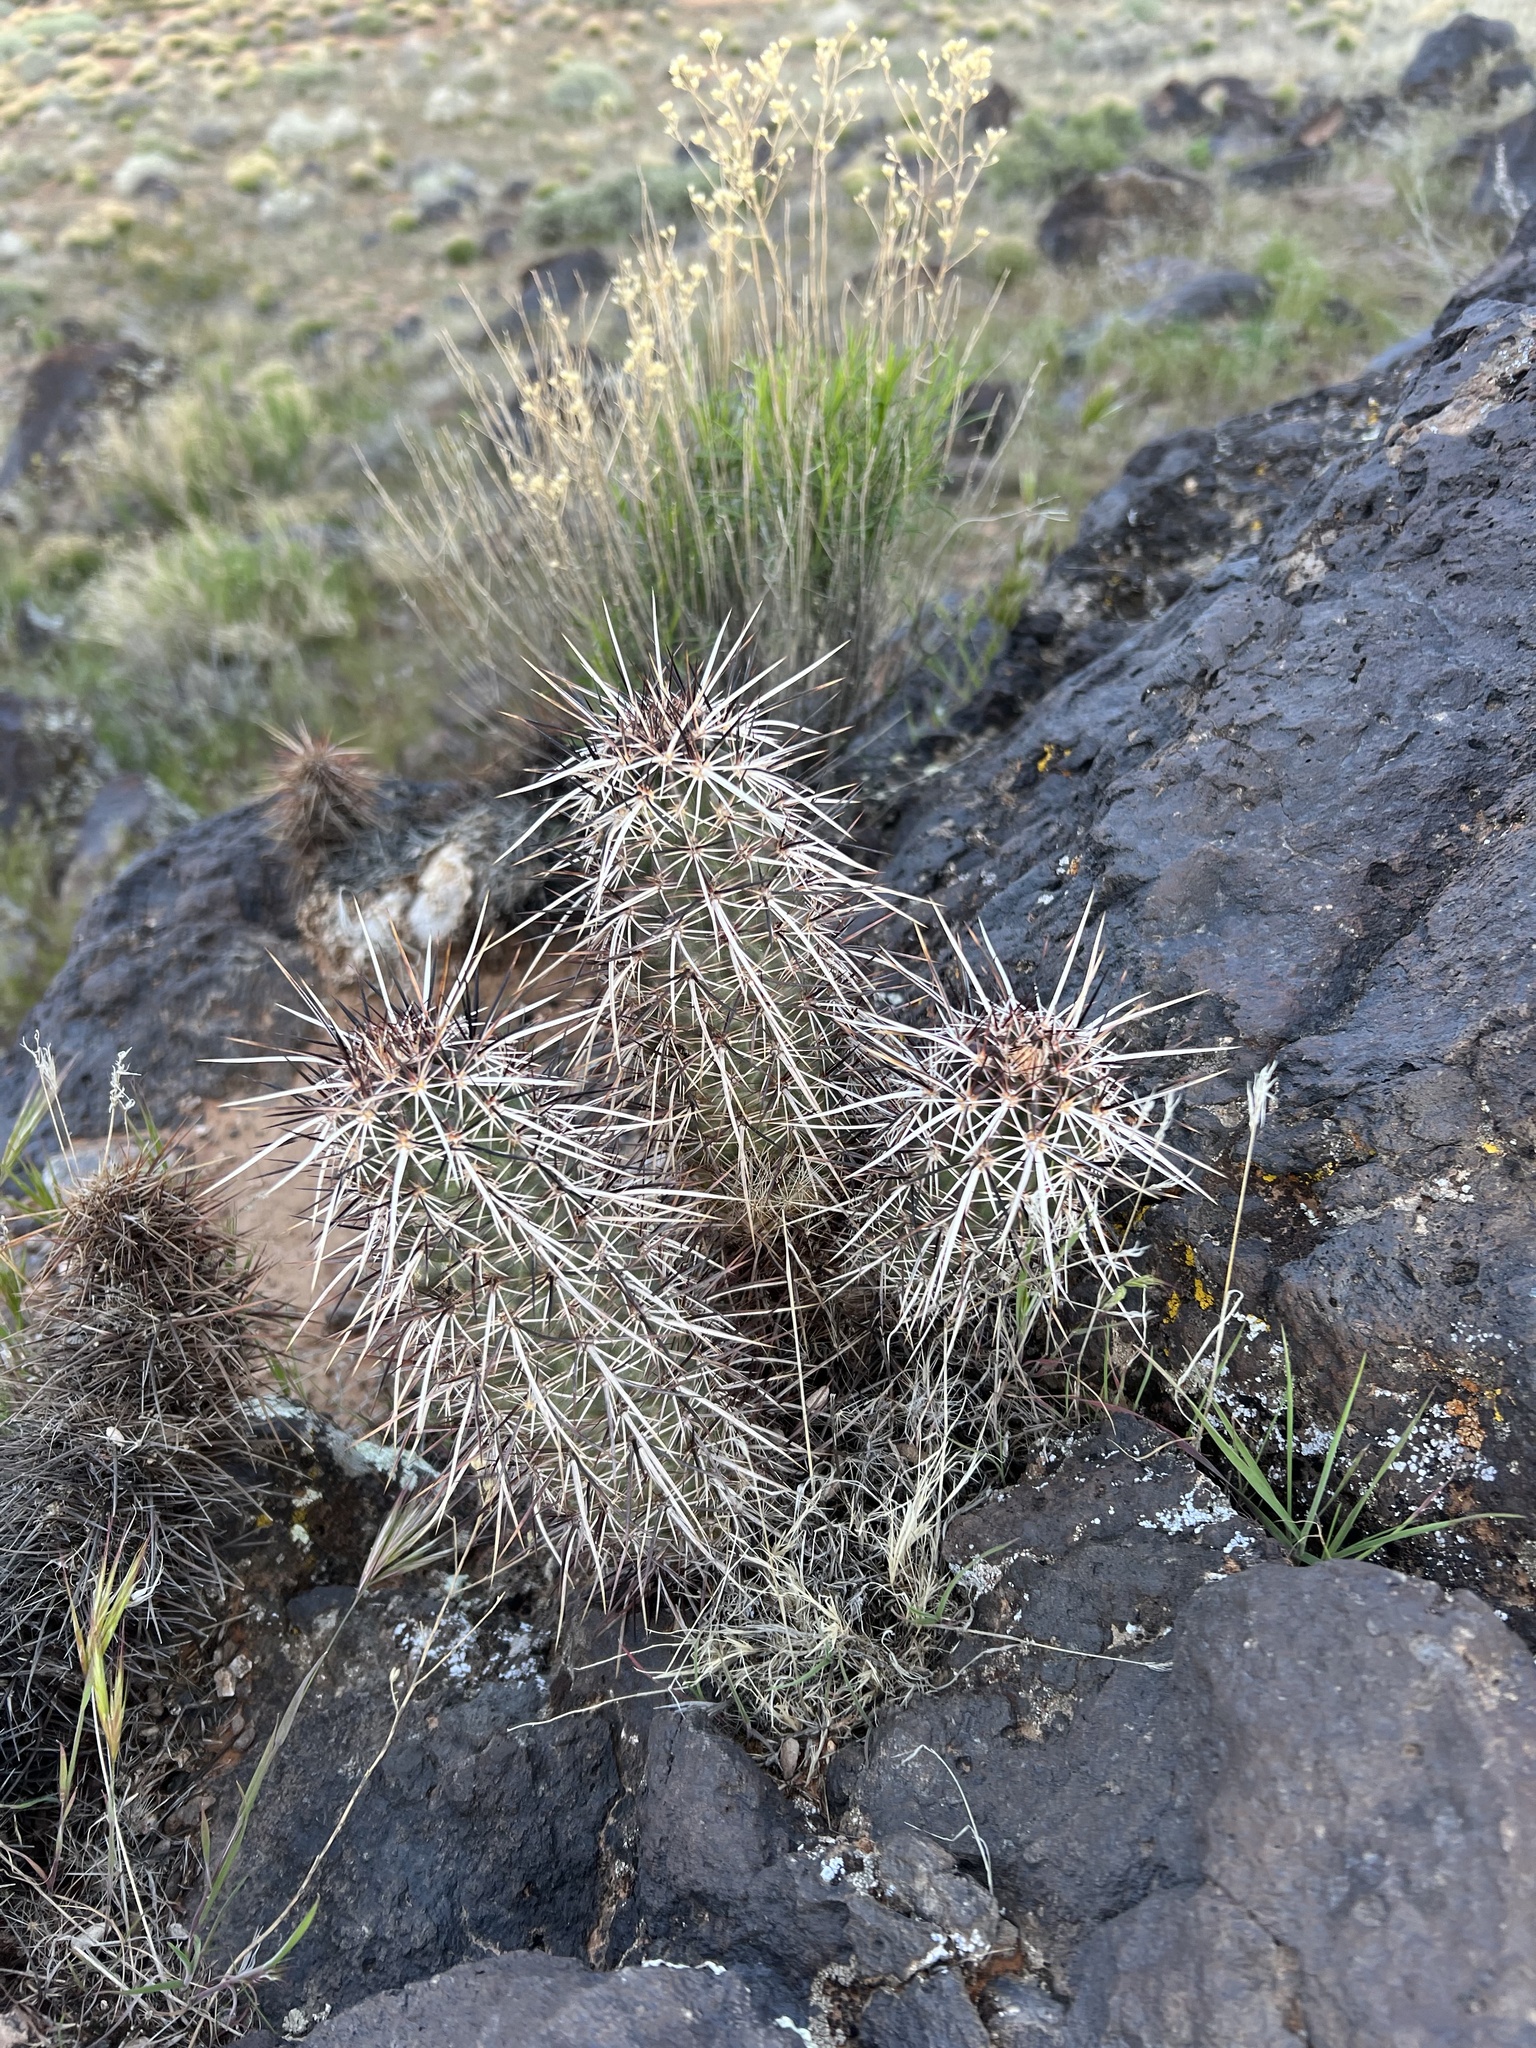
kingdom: Plantae
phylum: Tracheophyta
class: Magnoliopsida
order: Caryophyllales
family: Cactaceae
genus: Echinocereus
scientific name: Echinocereus relictus
